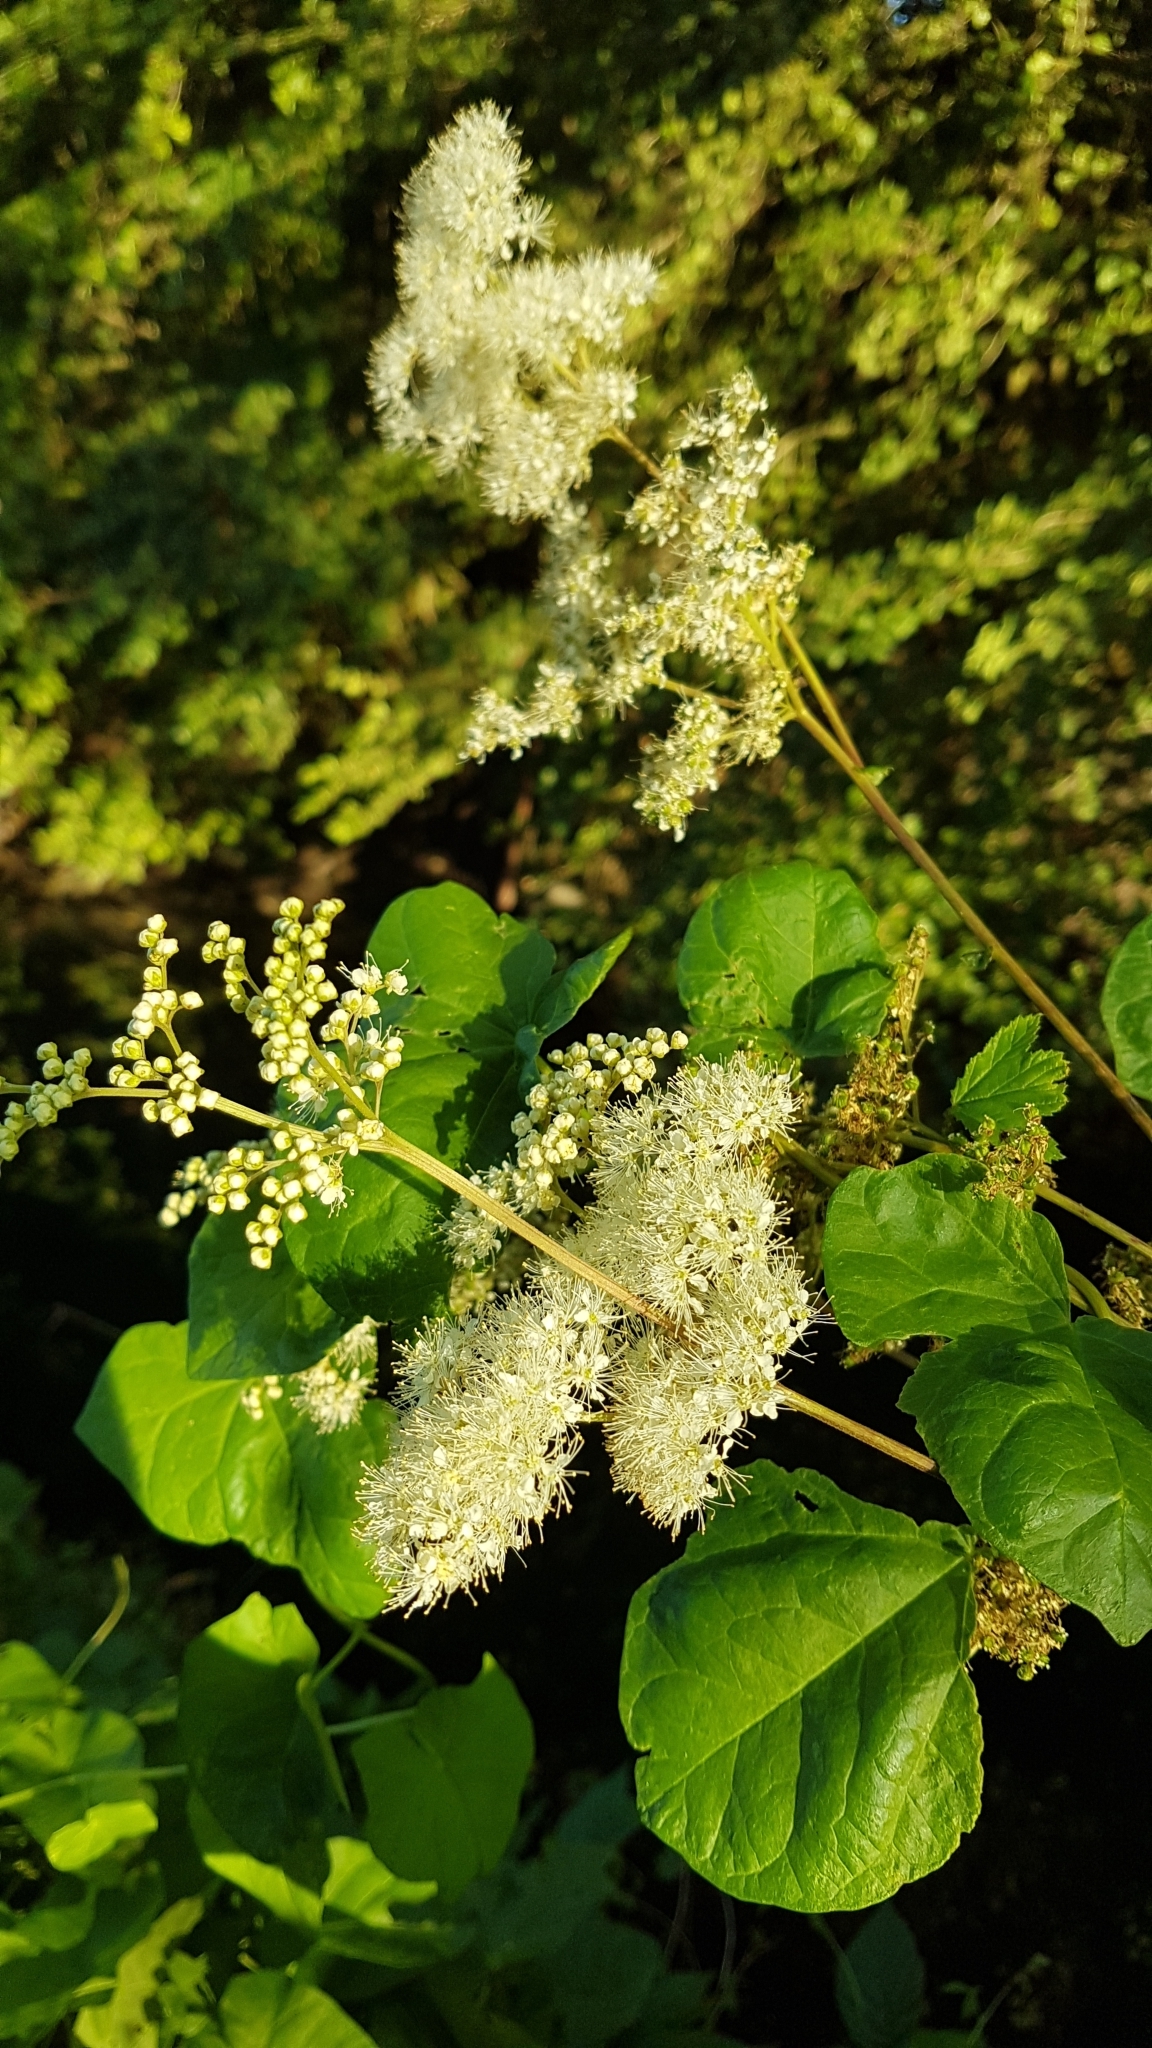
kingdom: Plantae
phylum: Tracheophyta
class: Magnoliopsida
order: Rosales
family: Rosaceae
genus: Filipendula
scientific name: Filipendula ulmaria
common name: Meadowsweet
